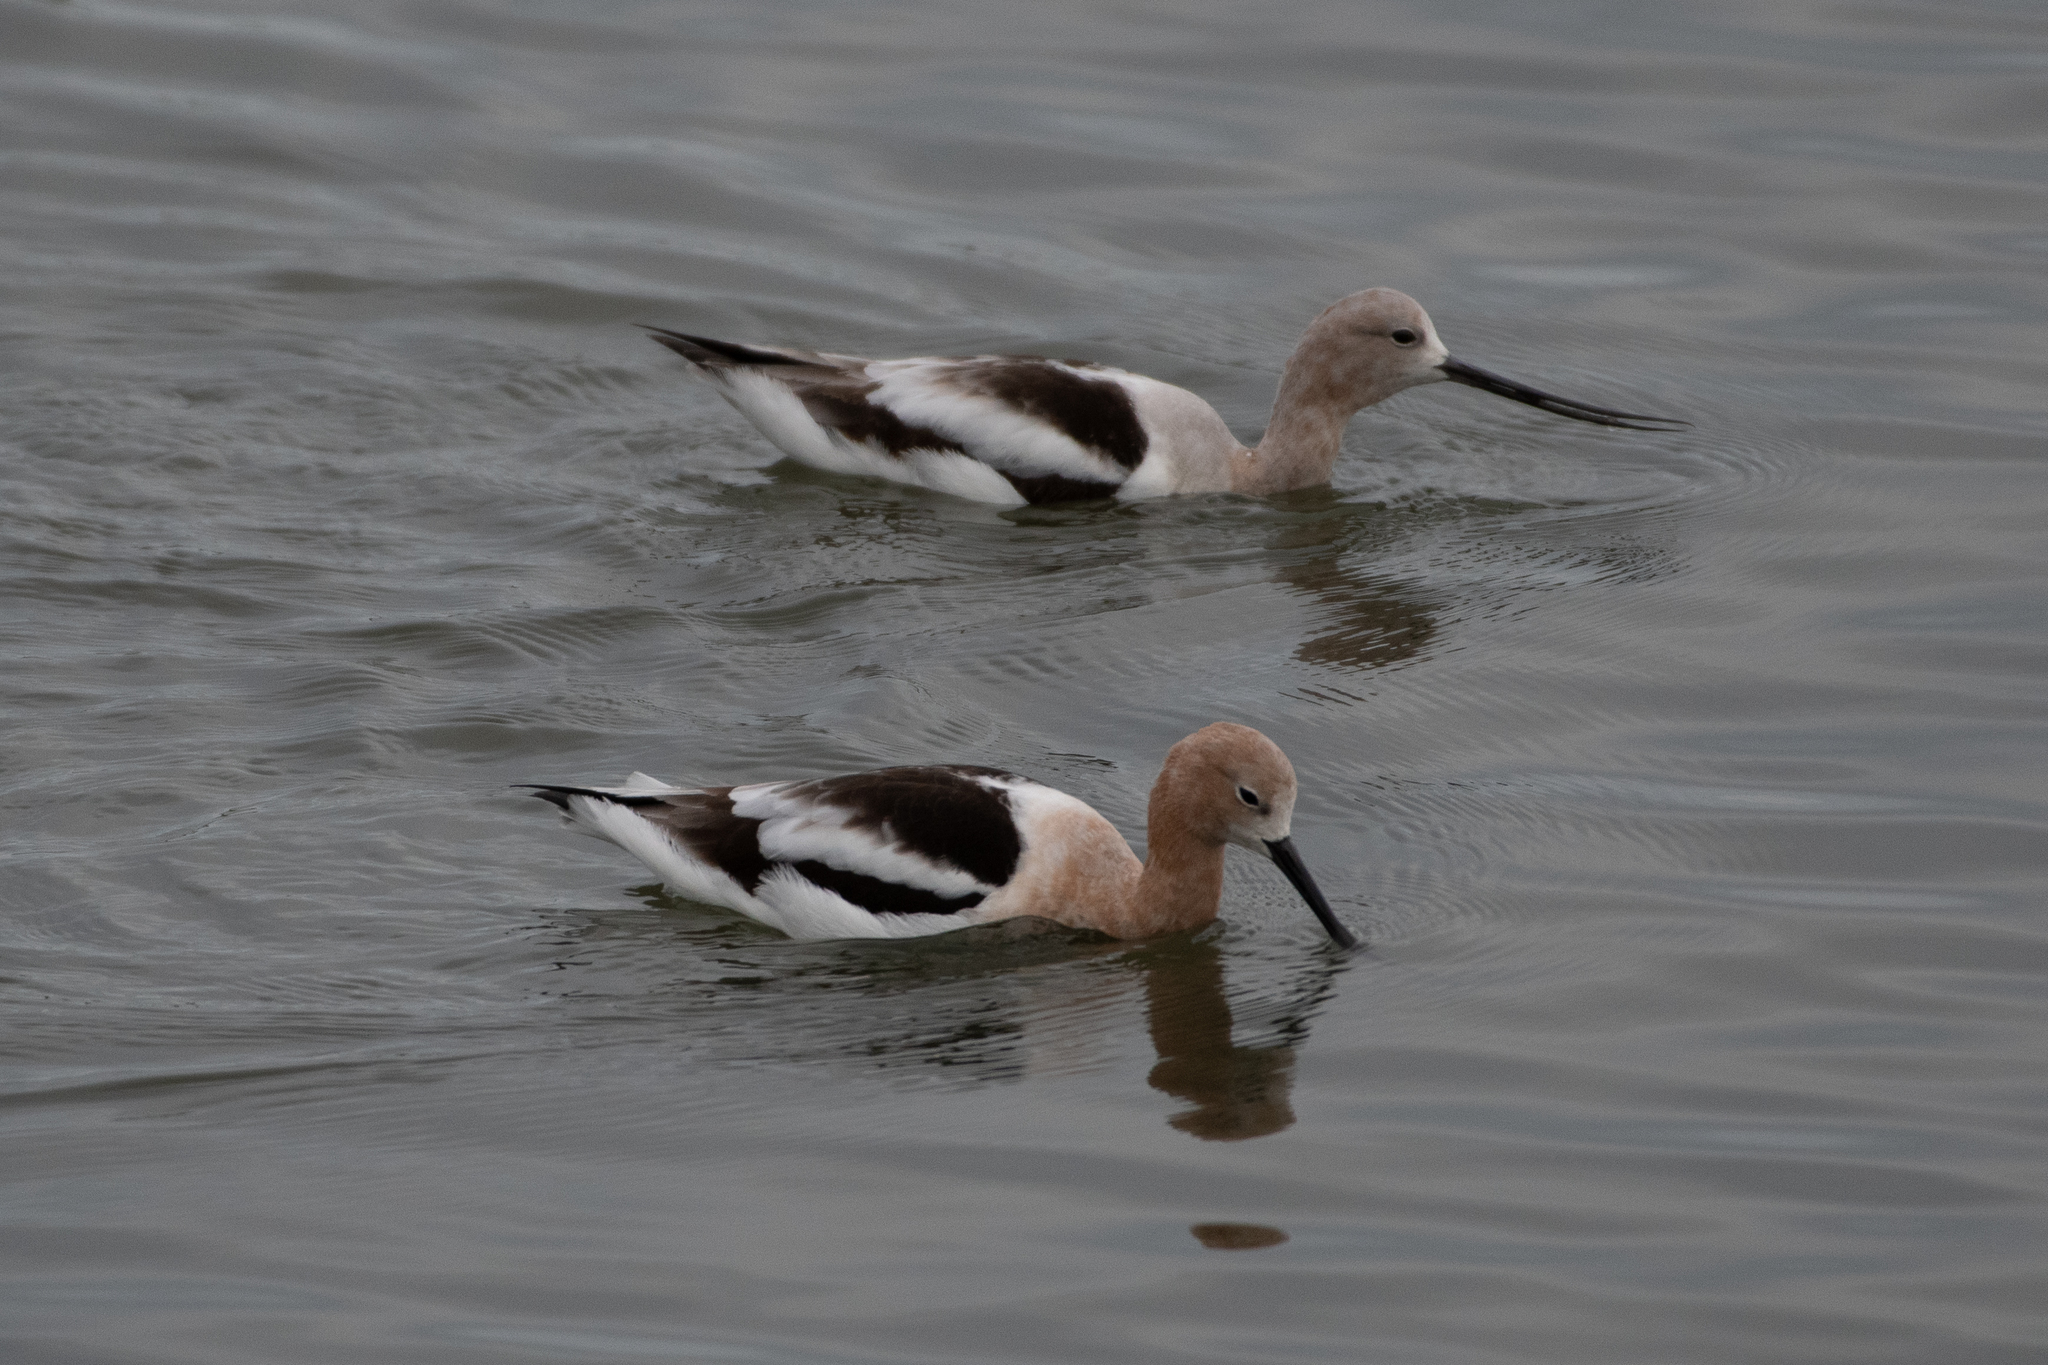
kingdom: Animalia
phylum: Chordata
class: Aves
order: Charadriiformes
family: Recurvirostridae
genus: Recurvirostra
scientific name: Recurvirostra americana
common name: American avocet
